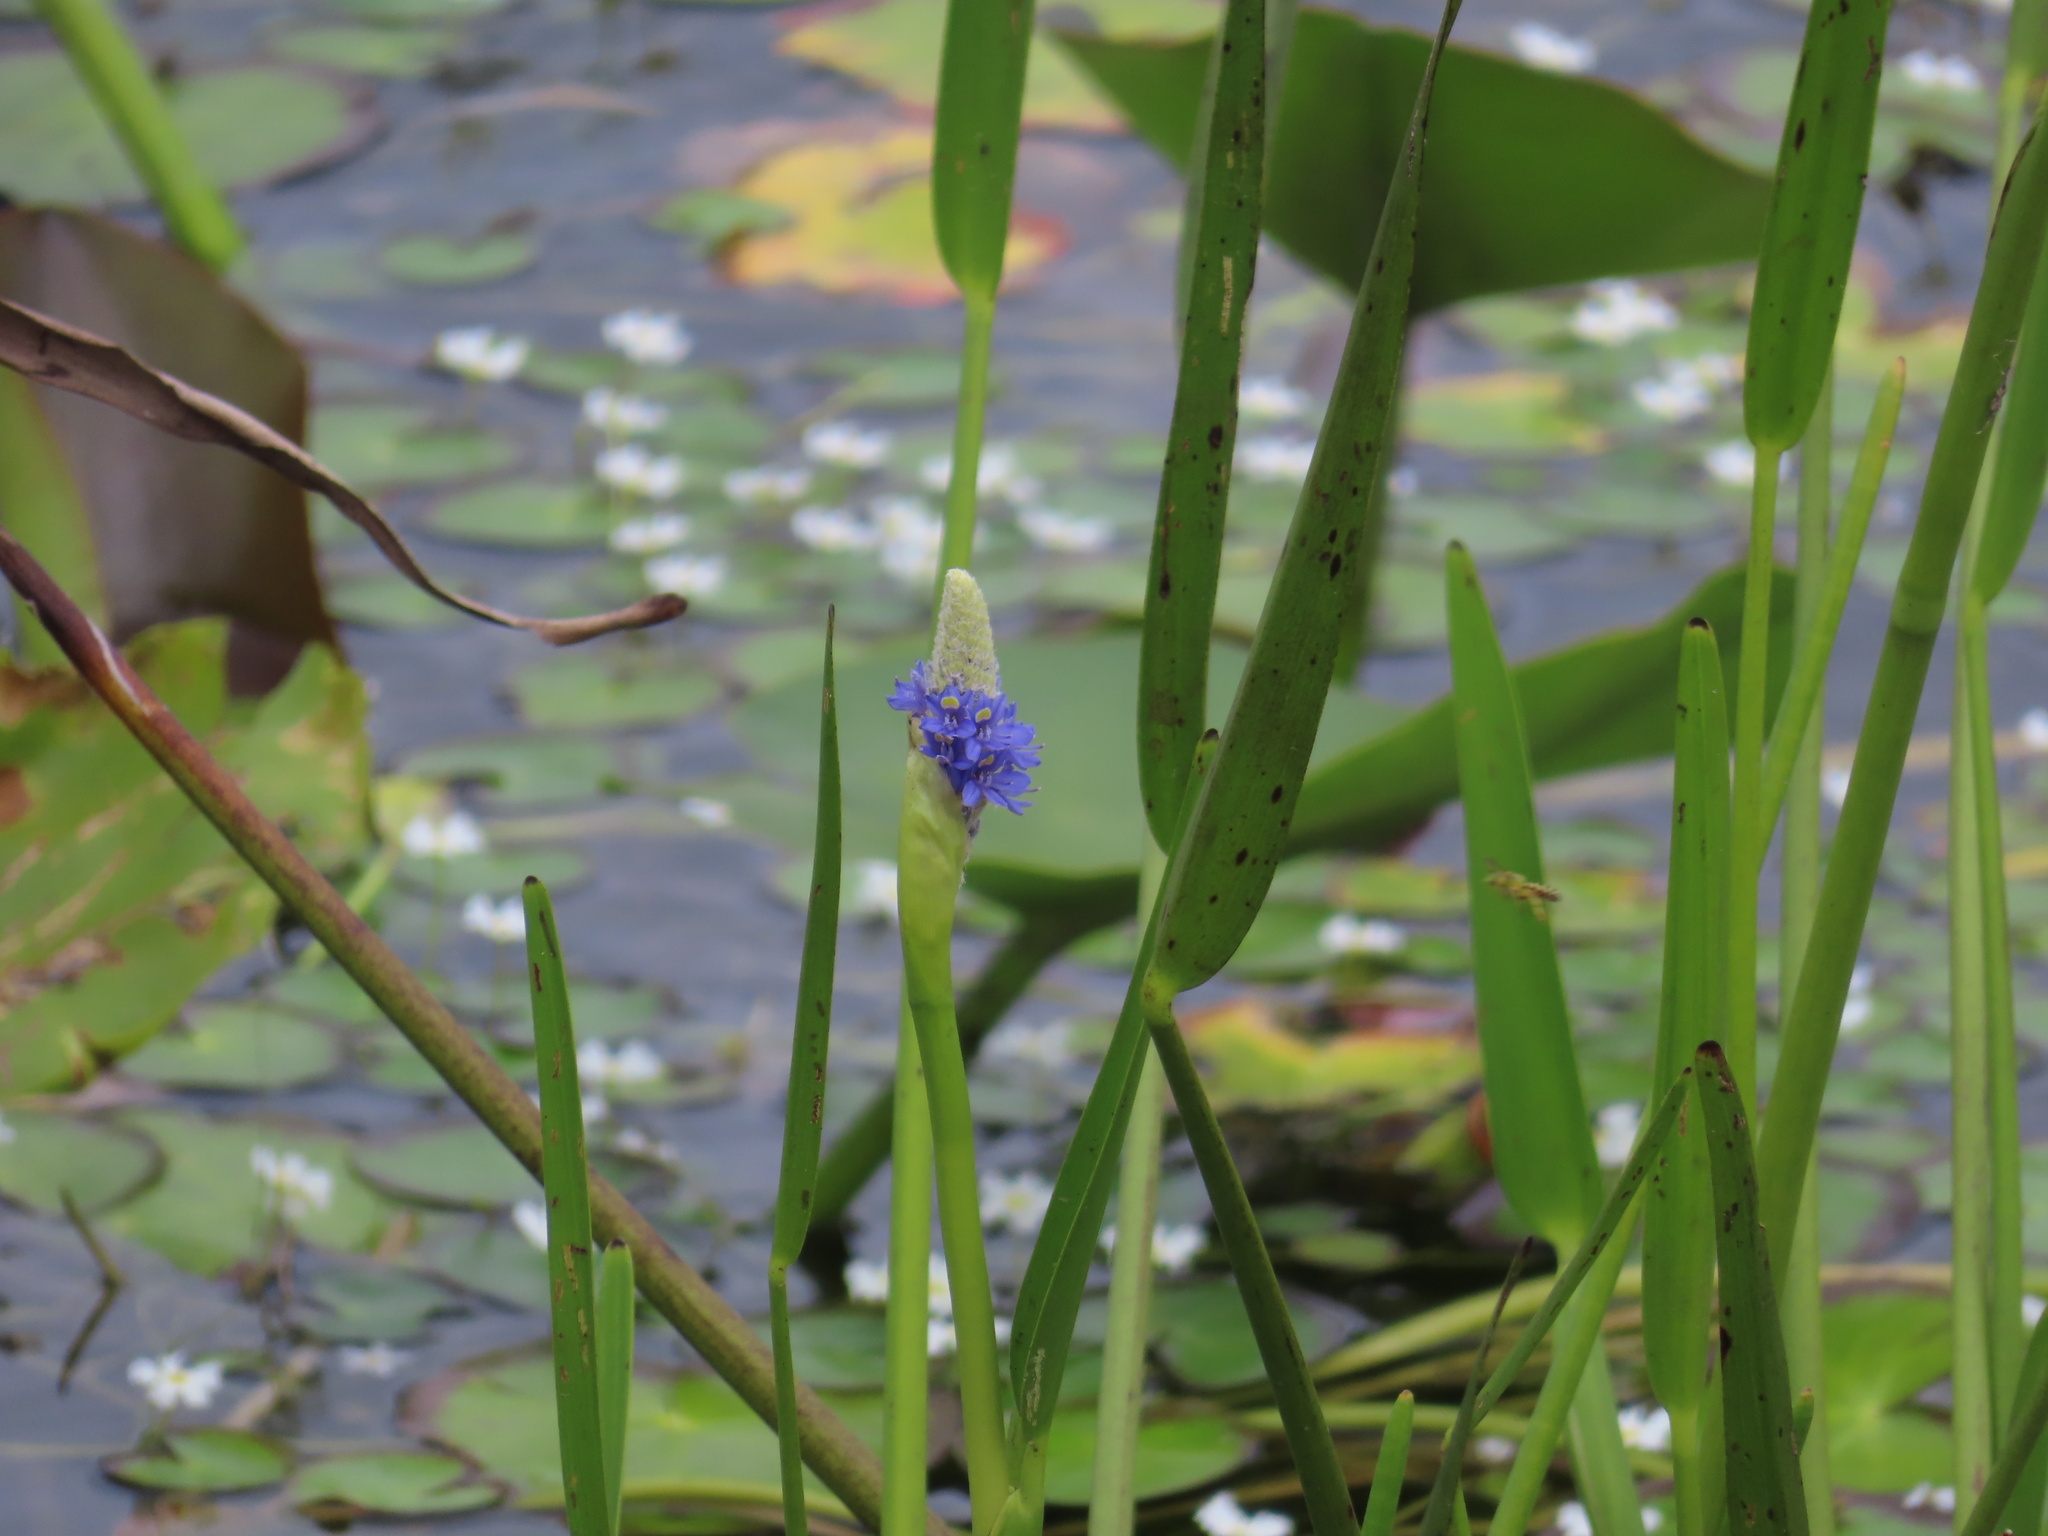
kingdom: Plantae
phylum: Tracheophyta
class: Liliopsida
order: Commelinales
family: Pontederiaceae
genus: Pontederia
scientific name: Pontederia cordata
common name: Pickerelweed
